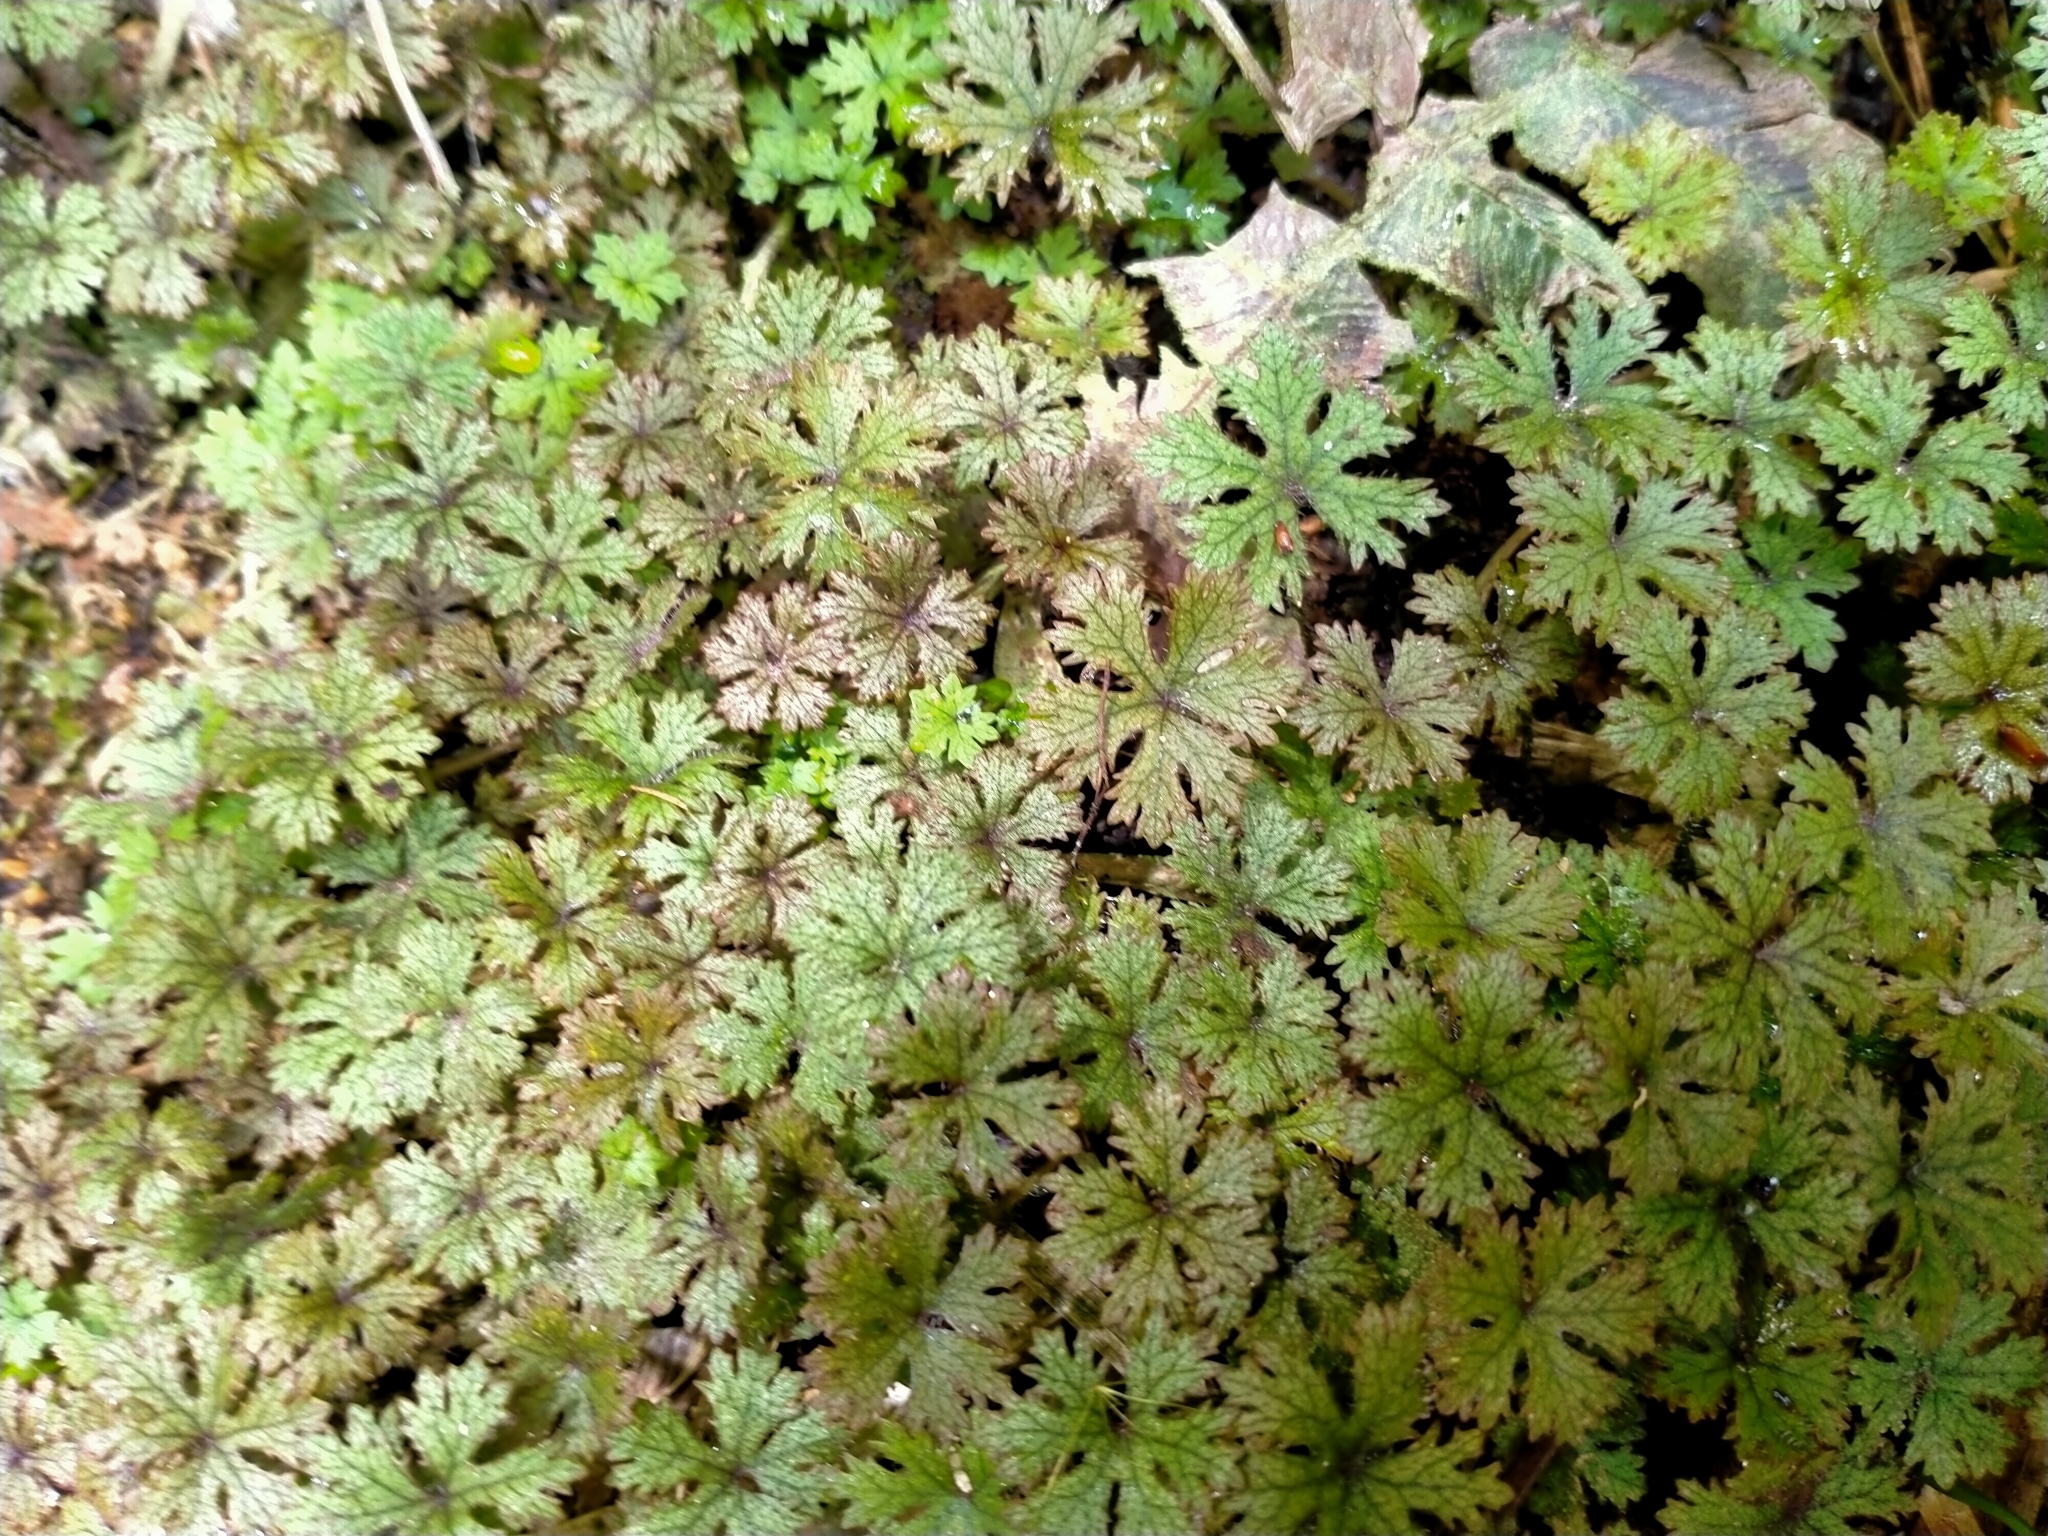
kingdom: Plantae
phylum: Tracheophyta
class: Magnoliopsida
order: Apiales
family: Araliaceae
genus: Hydrocotyle
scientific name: Hydrocotyle dissecta
